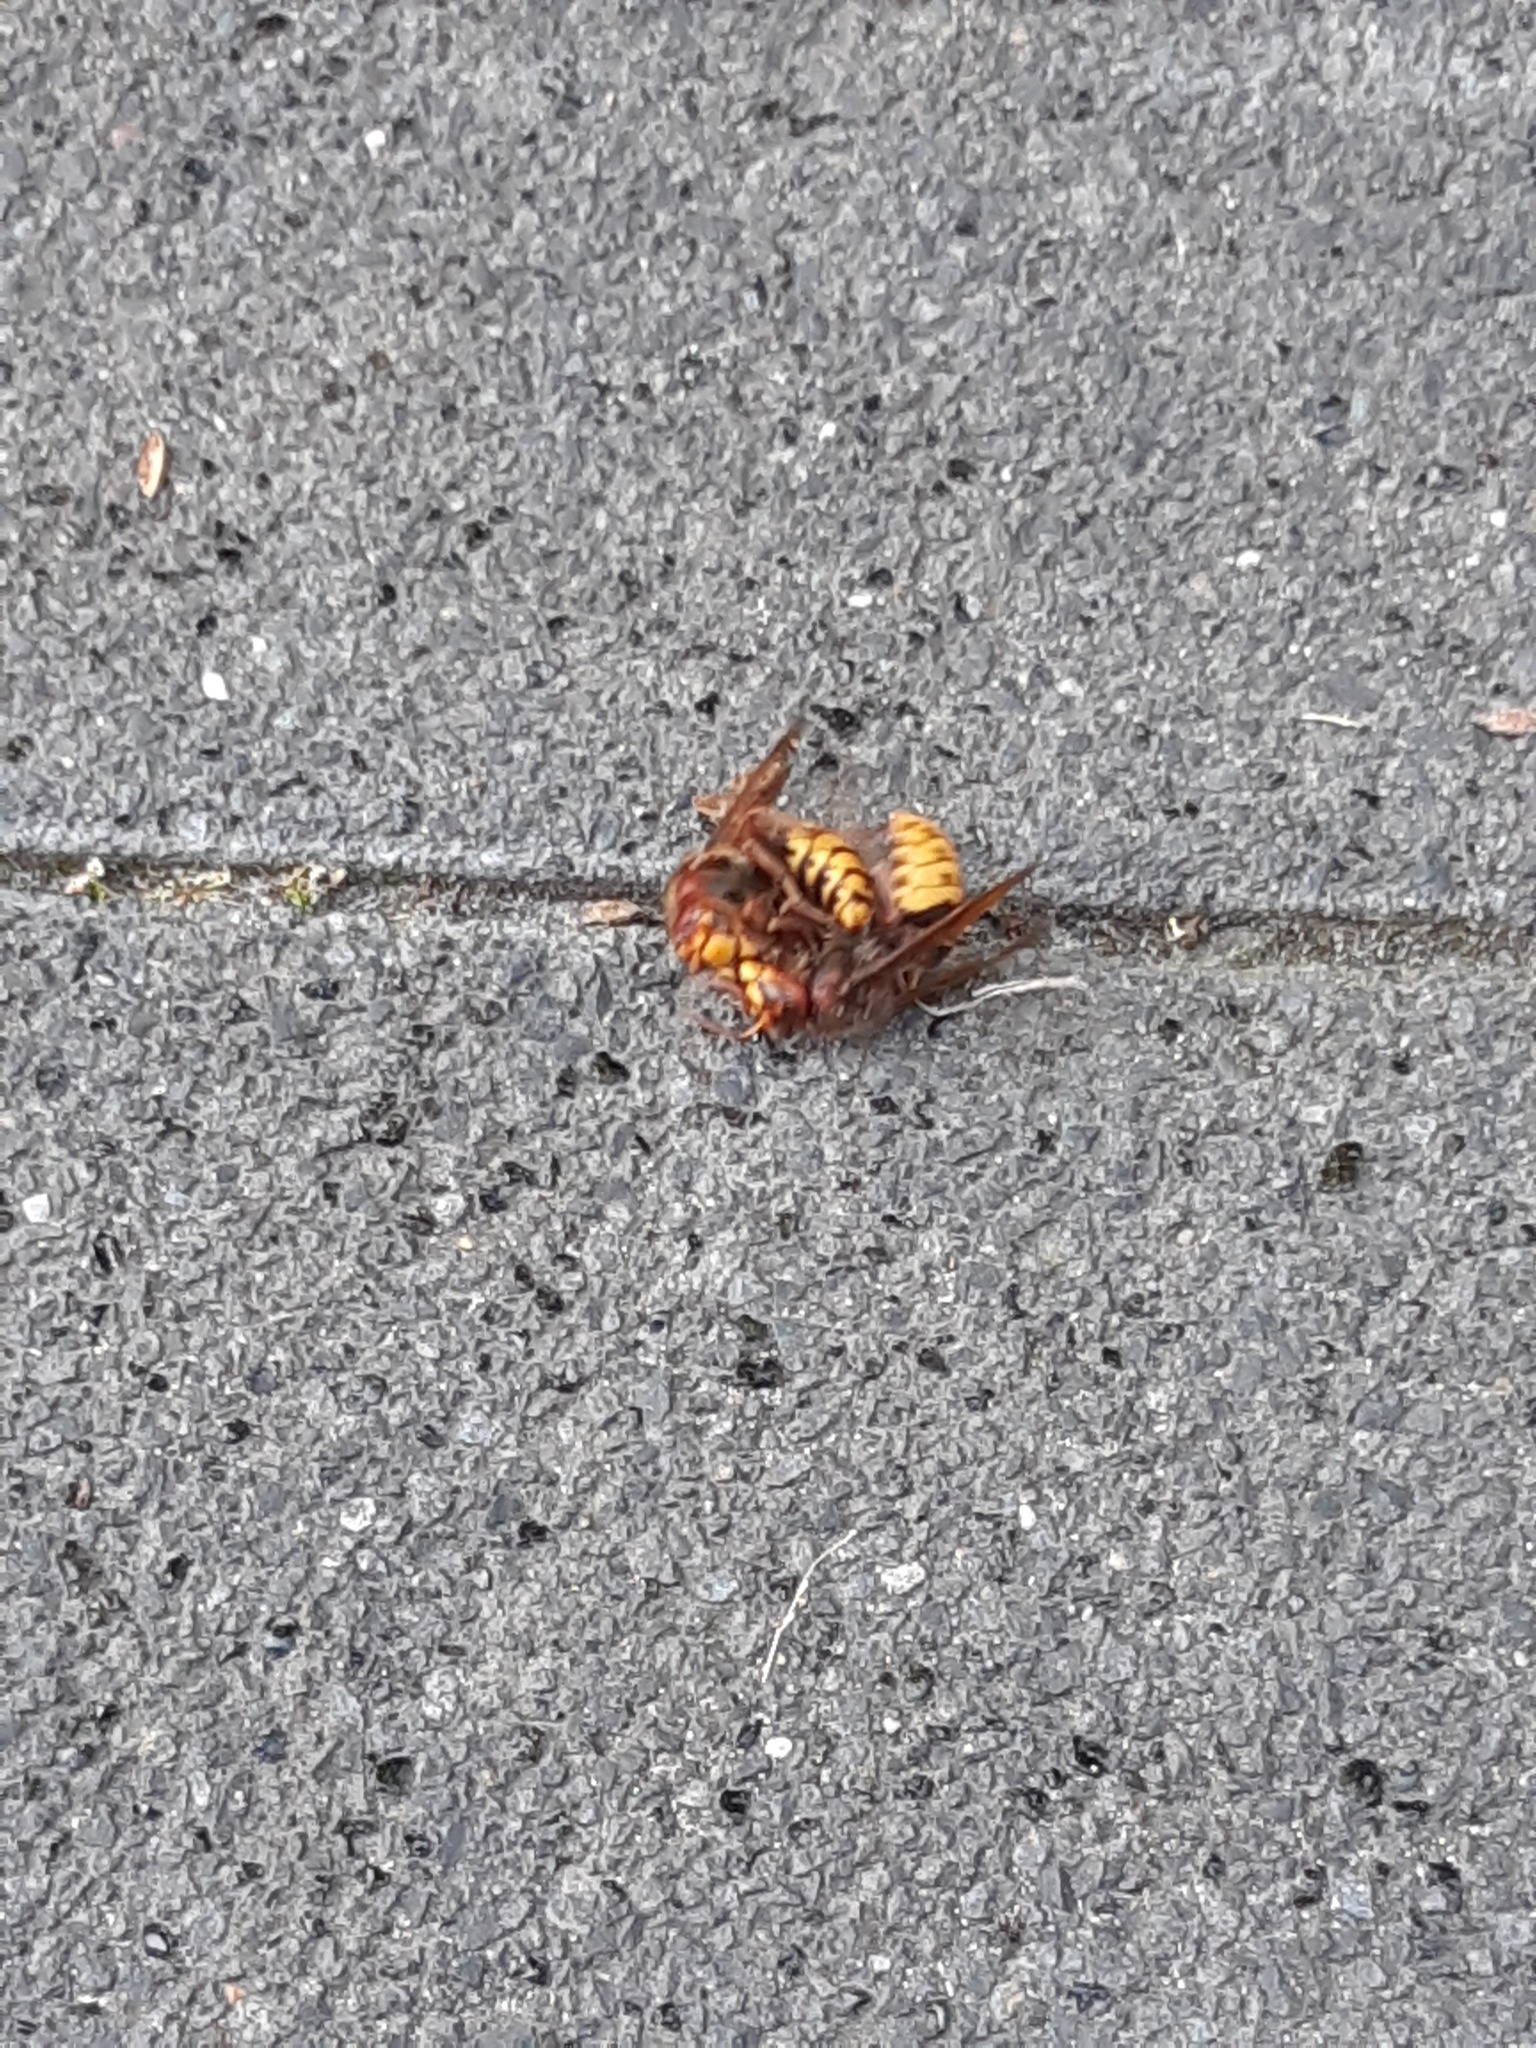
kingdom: Animalia
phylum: Arthropoda
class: Insecta
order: Hymenoptera
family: Vespidae
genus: Vespa
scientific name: Vespa crabro
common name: Hornet
